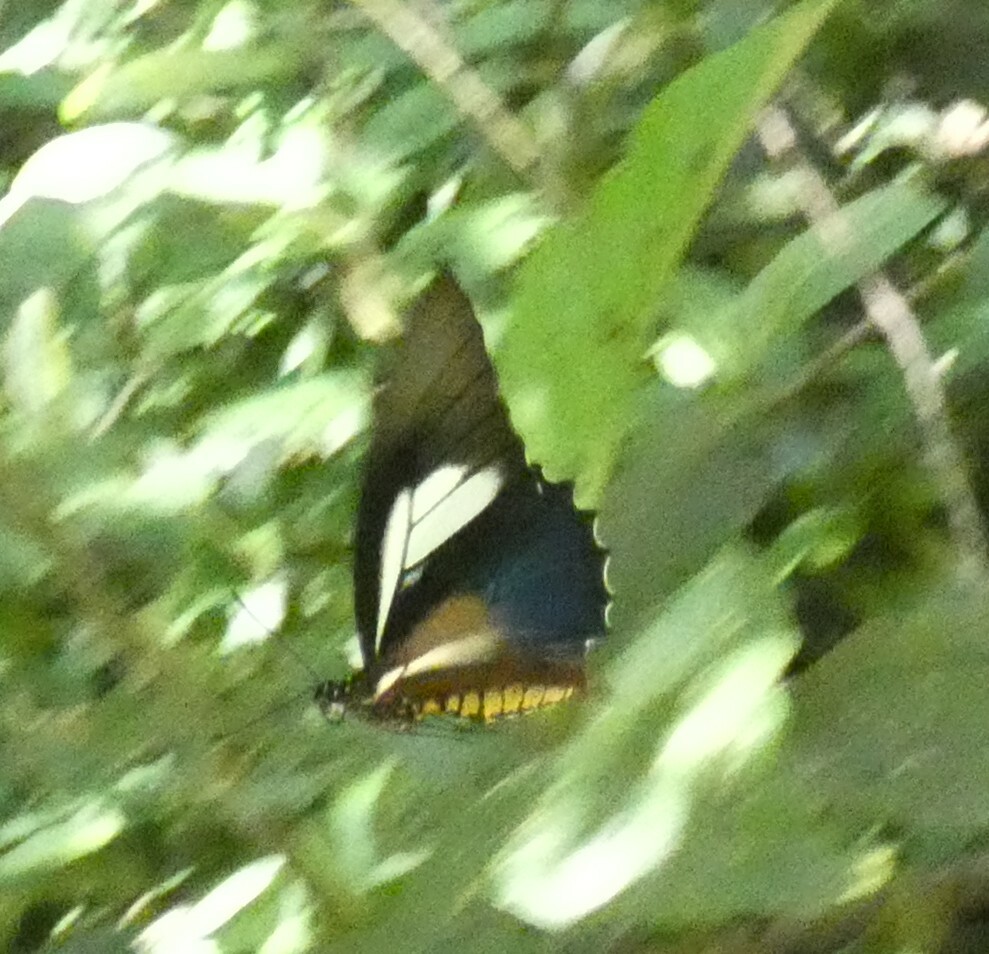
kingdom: Animalia
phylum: Arthropoda
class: Insecta
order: Lepidoptera
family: Papilionidae
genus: Battus
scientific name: Battus crassus
